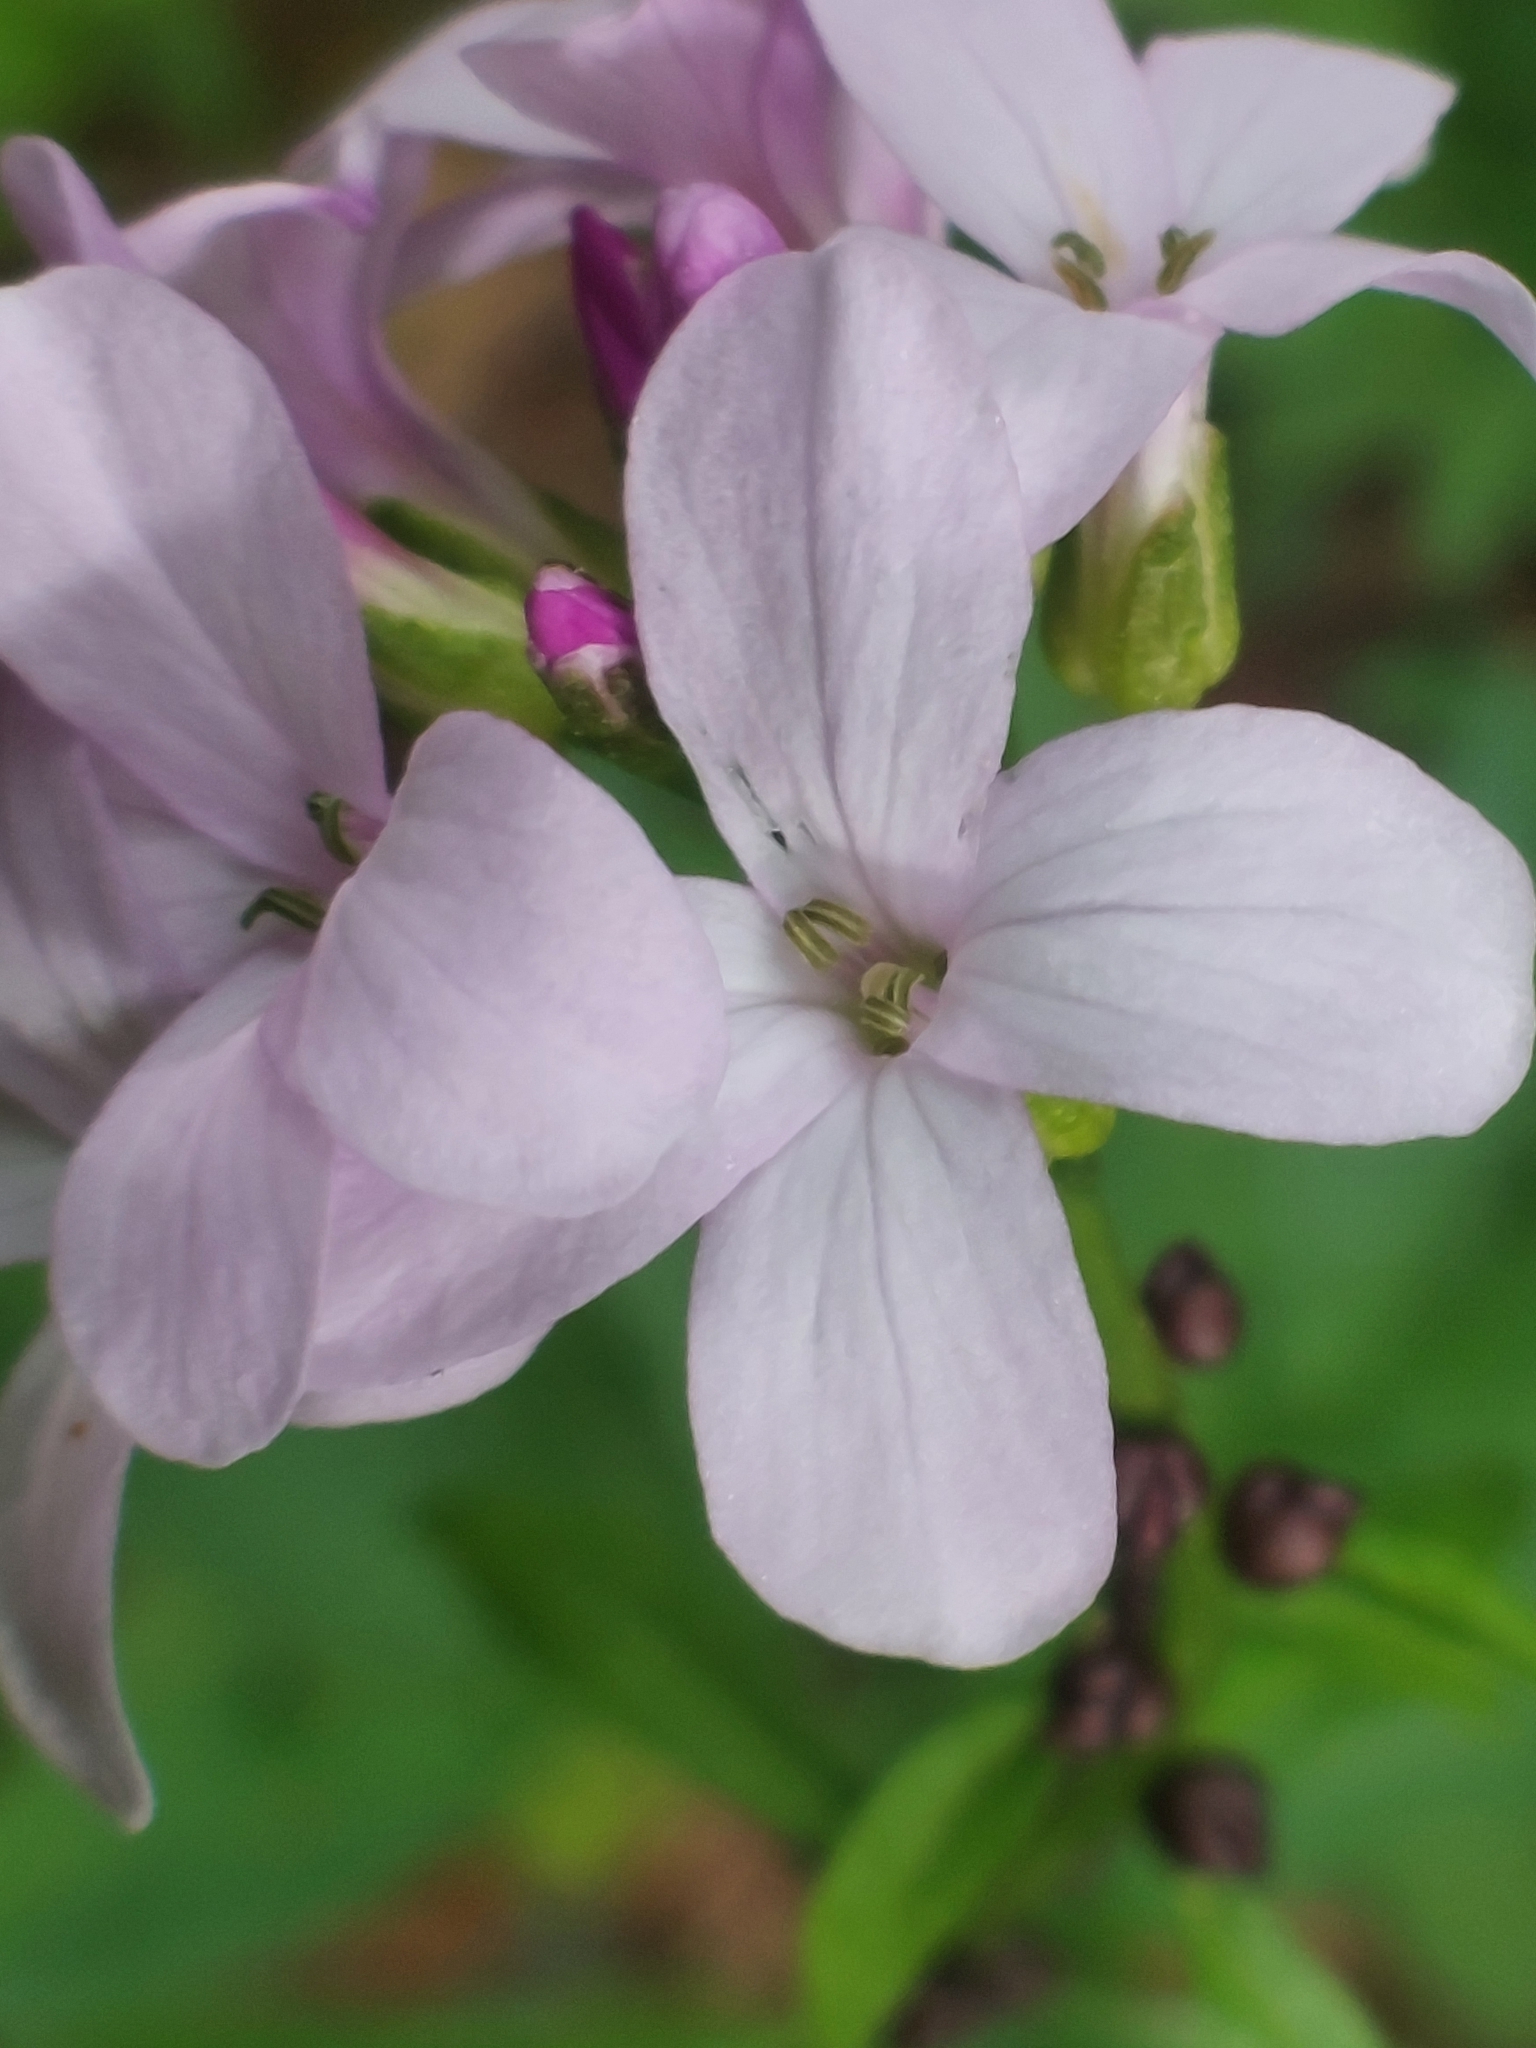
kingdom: Plantae
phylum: Tracheophyta
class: Magnoliopsida
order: Brassicales
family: Brassicaceae
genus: Cardamine
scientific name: Cardamine bulbifera
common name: Coralroot bittercress
